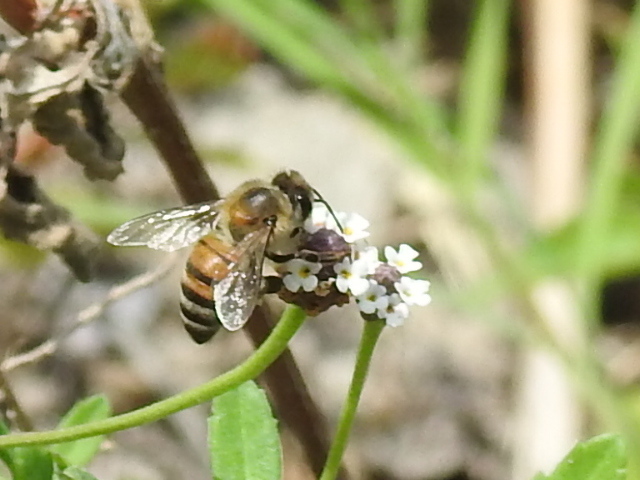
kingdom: Animalia
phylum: Arthropoda
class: Insecta
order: Hymenoptera
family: Apidae
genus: Apis
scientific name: Apis mellifera
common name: Honey bee
